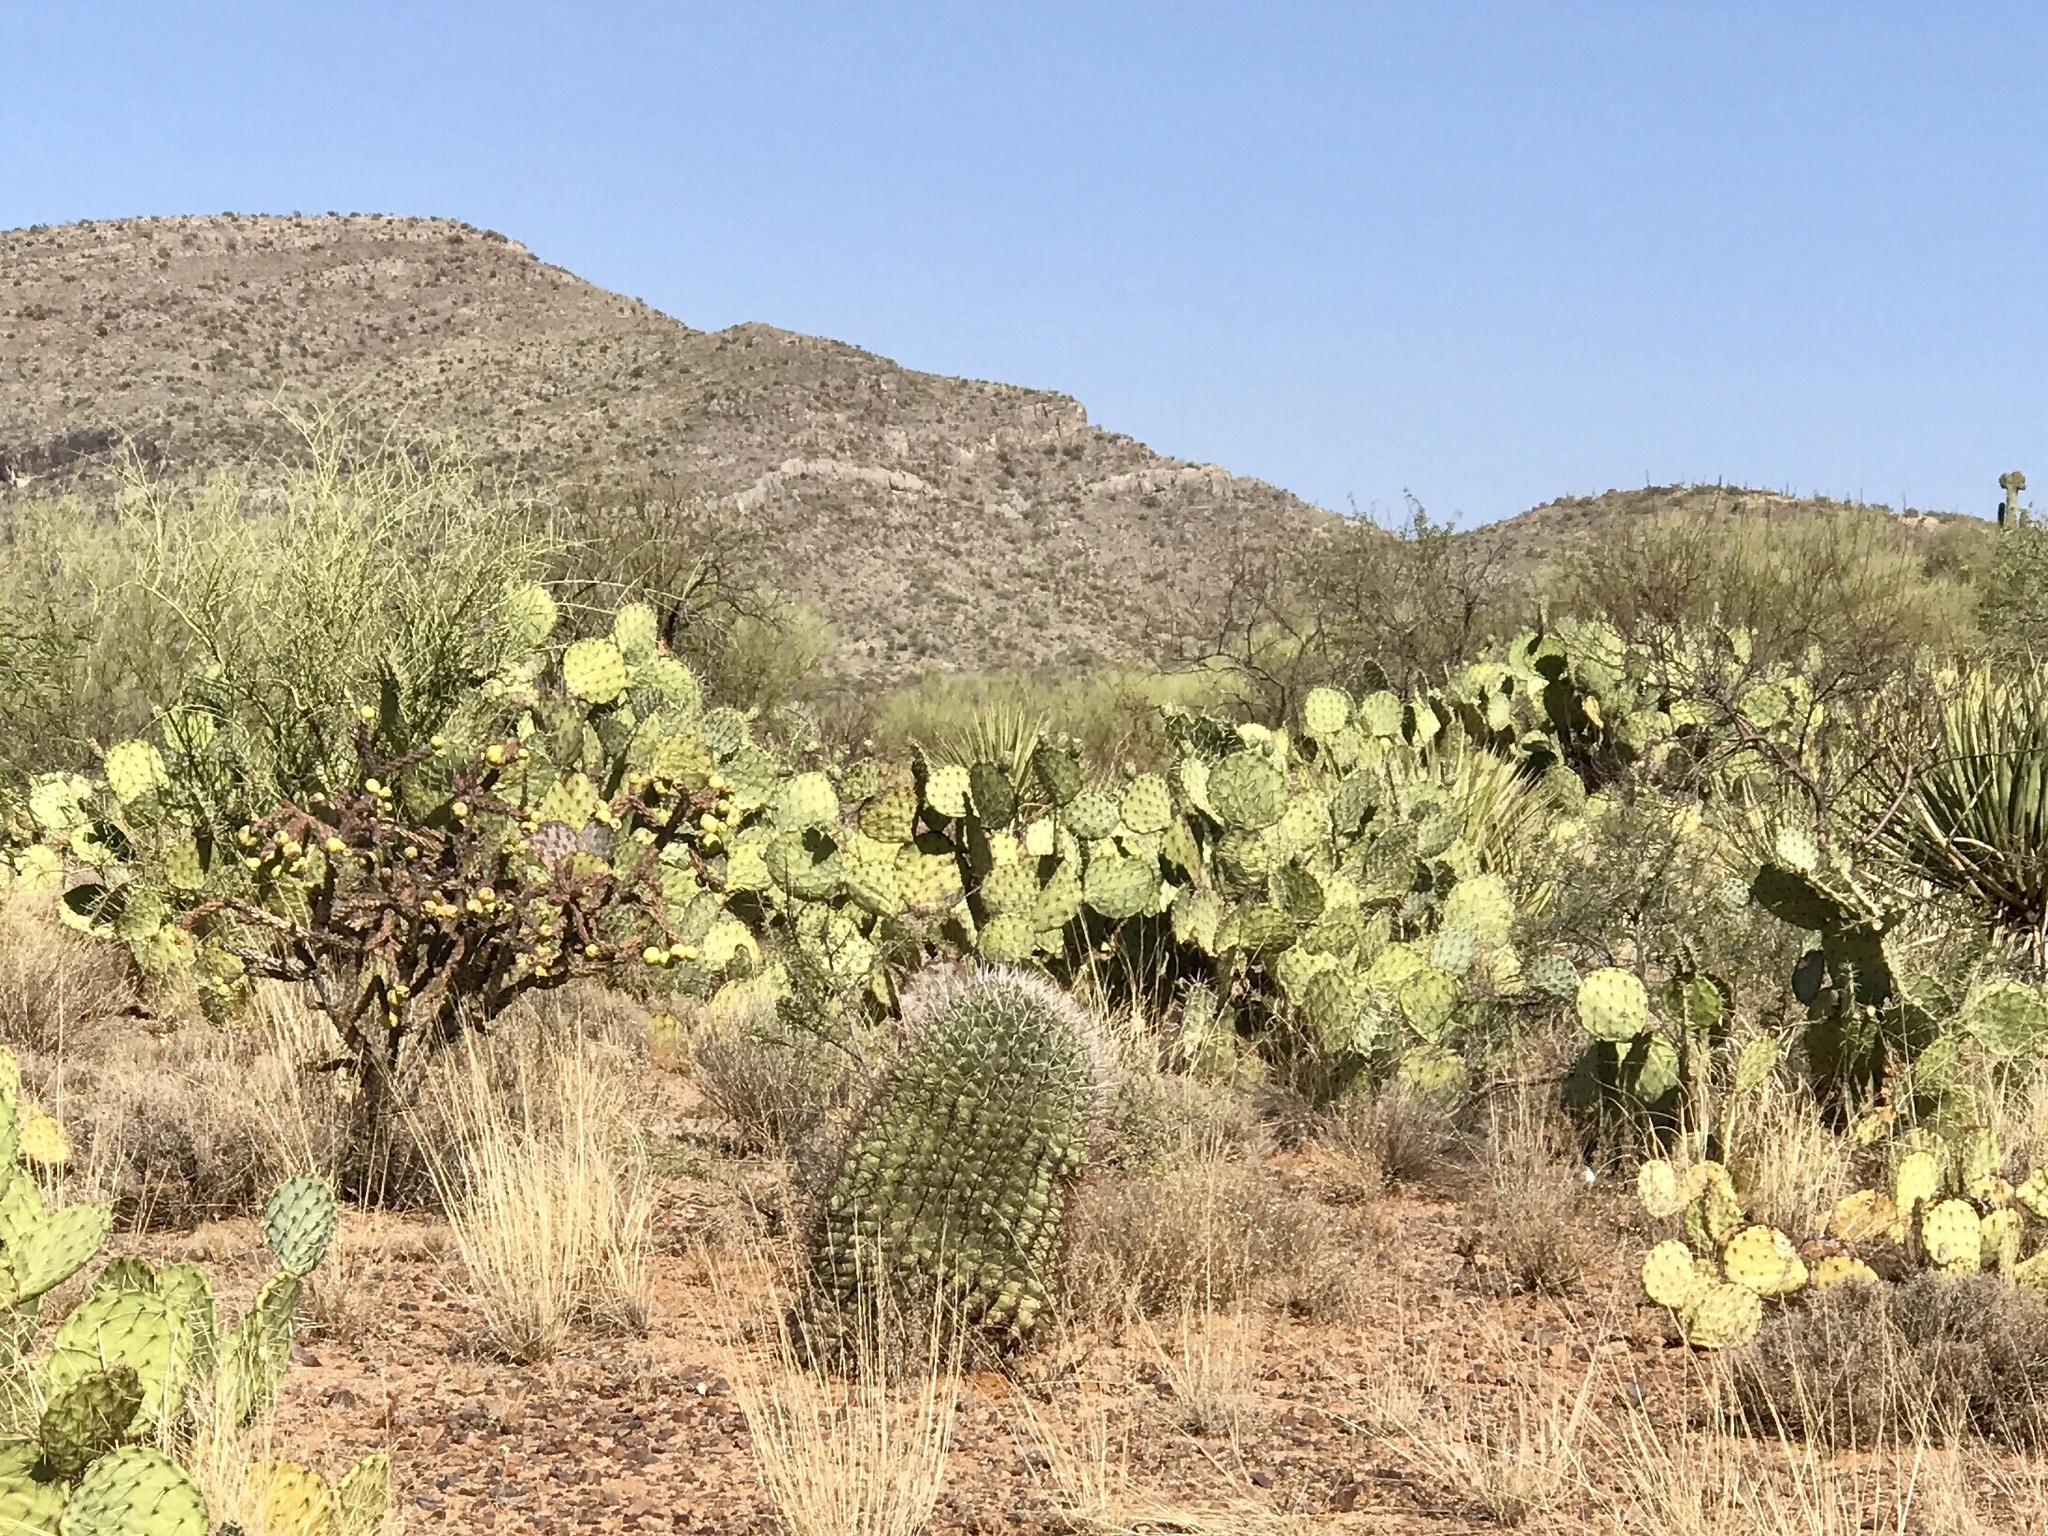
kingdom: Plantae
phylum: Tracheophyta
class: Magnoliopsida
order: Caryophyllales
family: Cactaceae
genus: Ferocactus
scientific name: Ferocactus wislizeni
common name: Candy barrel cactus
